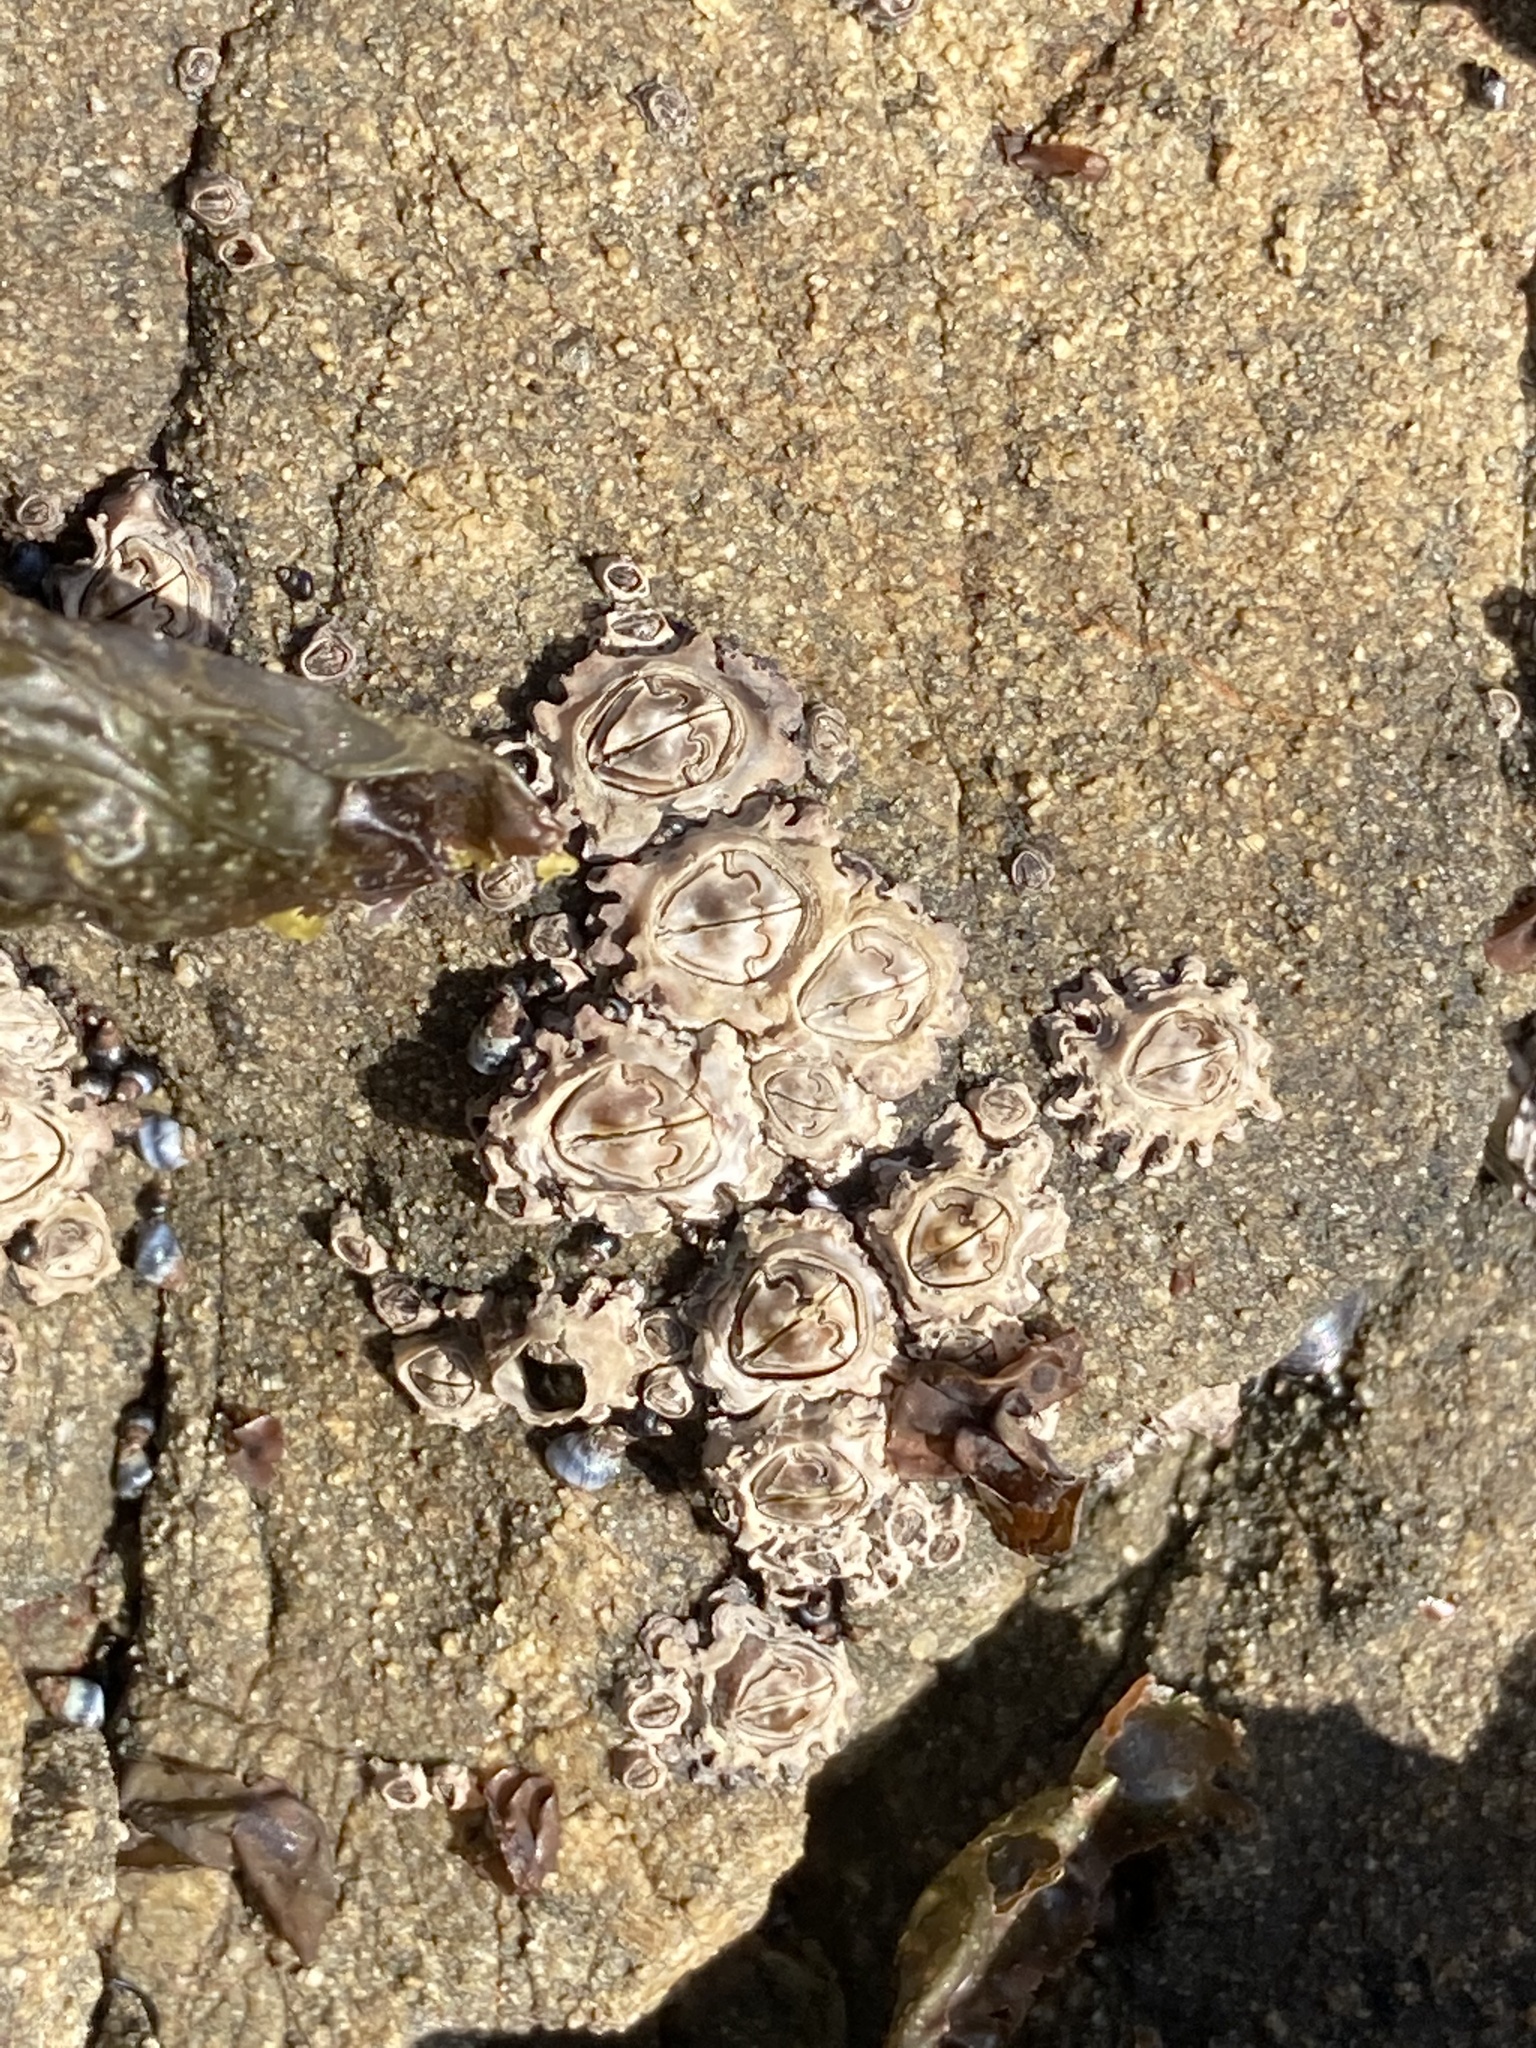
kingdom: Animalia
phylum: Arthropoda
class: Maxillopoda
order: Sessilia
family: Chthamalidae
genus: Chamaesipho
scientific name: Chamaesipho brunnea
